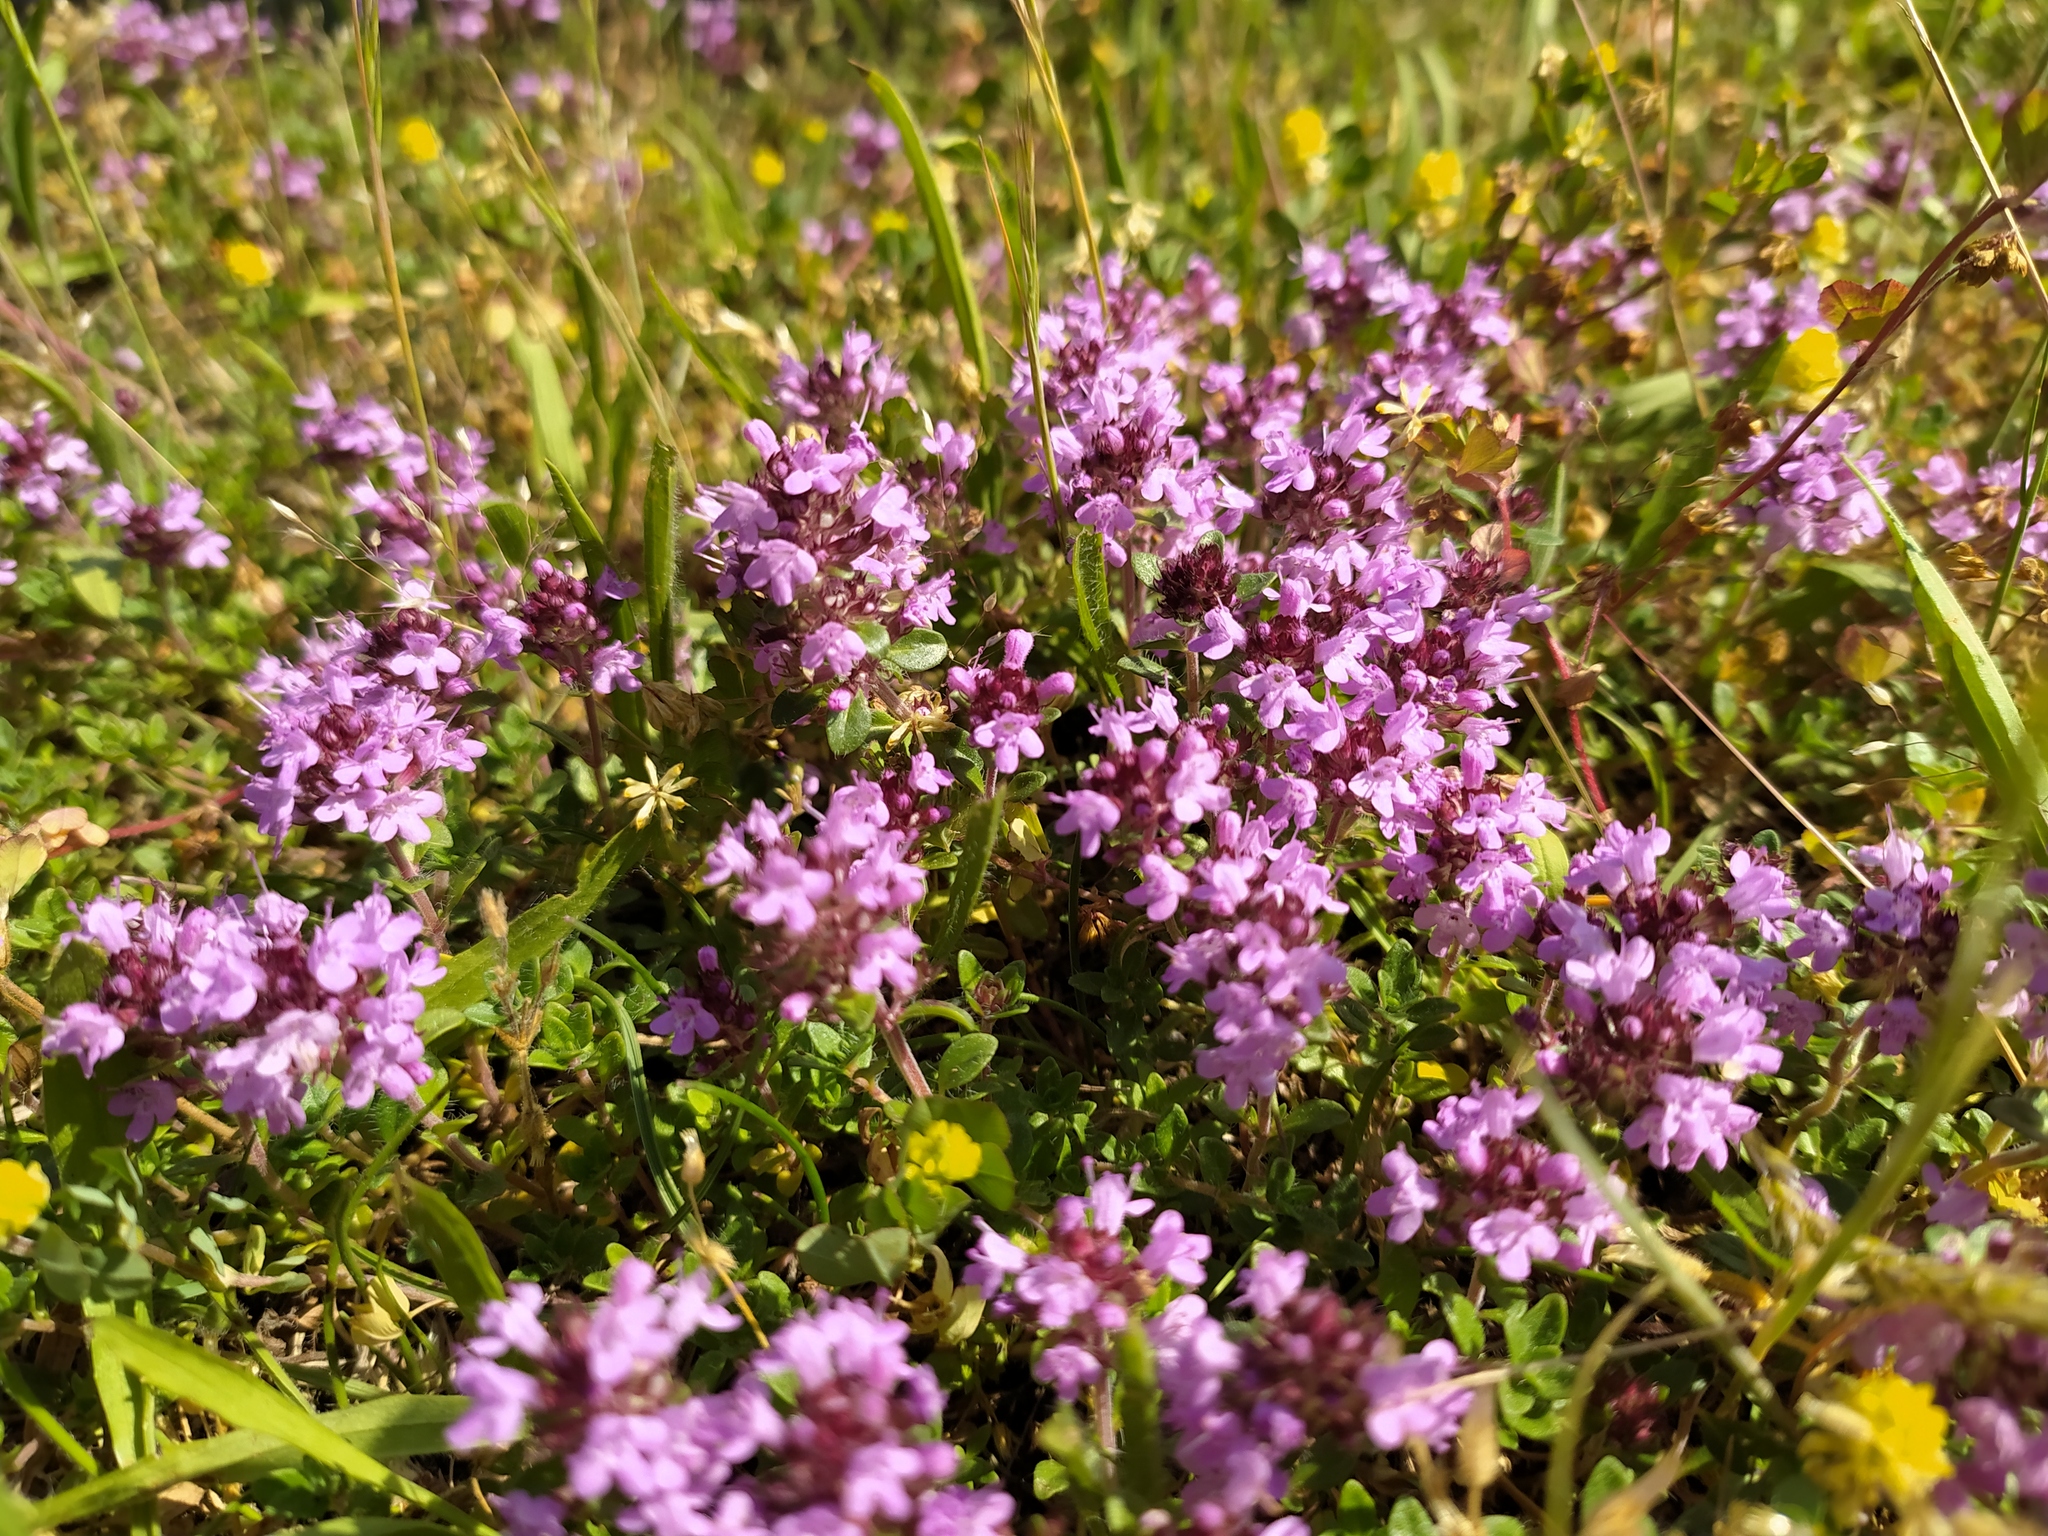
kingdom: Plantae
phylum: Tracheophyta
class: Magnoliopsida
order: Lamiales
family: Lamiaceae
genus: Thymus
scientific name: Thymus praecox
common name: Wild thyme
